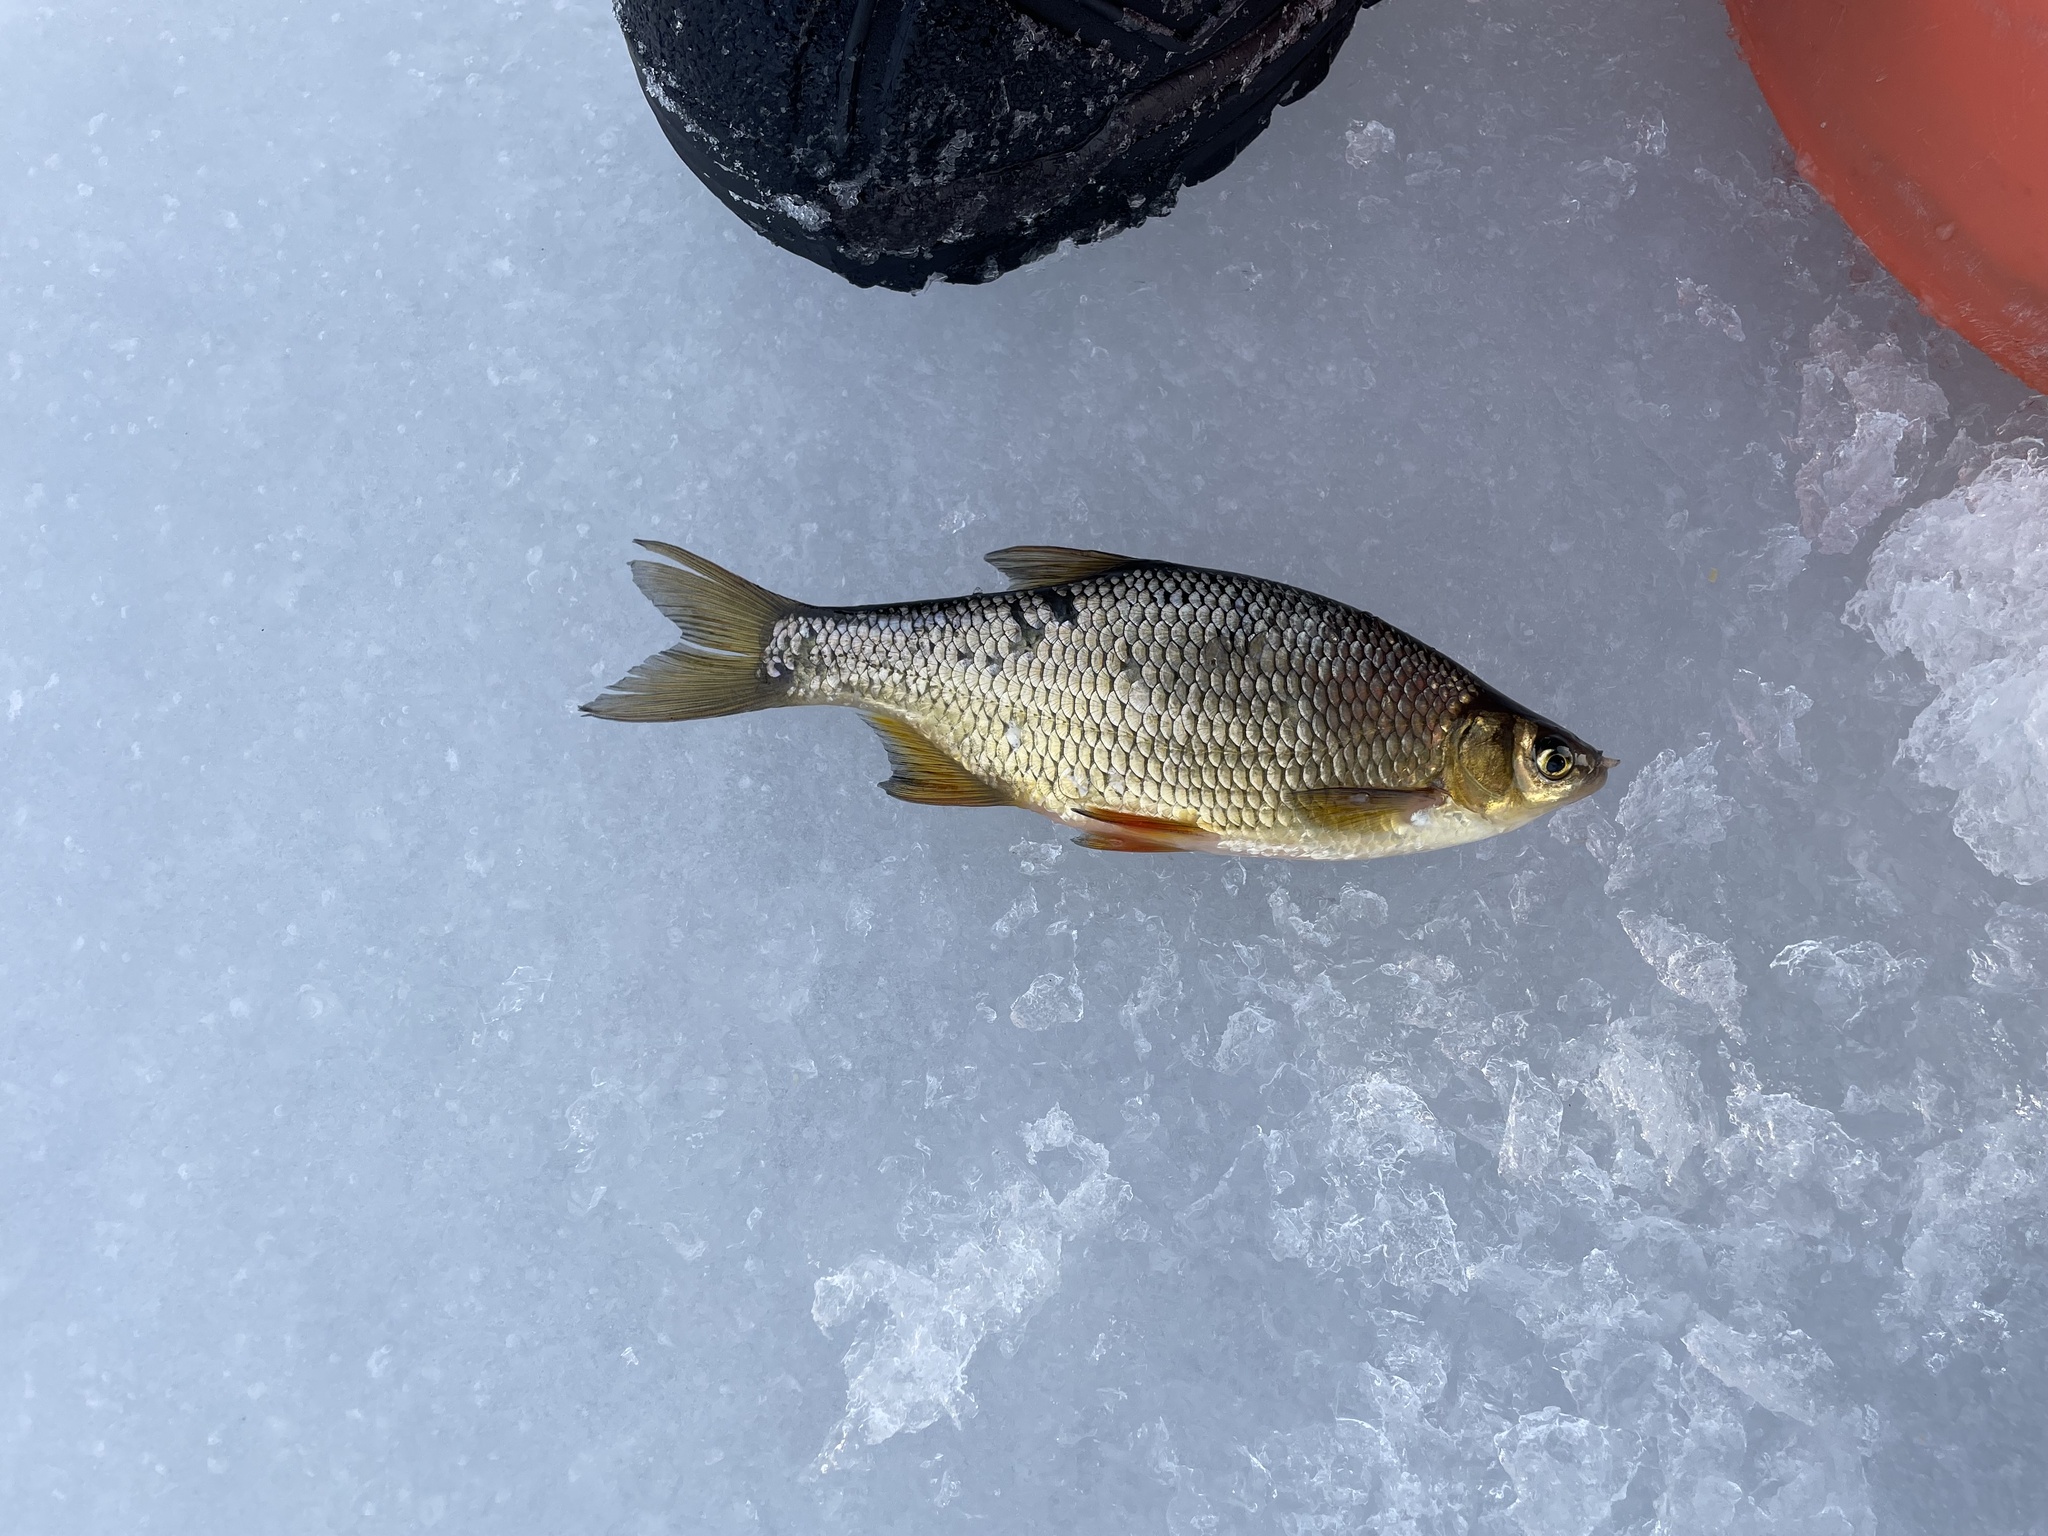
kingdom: Animalia
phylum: Chordata
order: Cypriniformes
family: Cyprinidae
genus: Notemigonus
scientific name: Notemigonus crysoleucas
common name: Golden shiner
